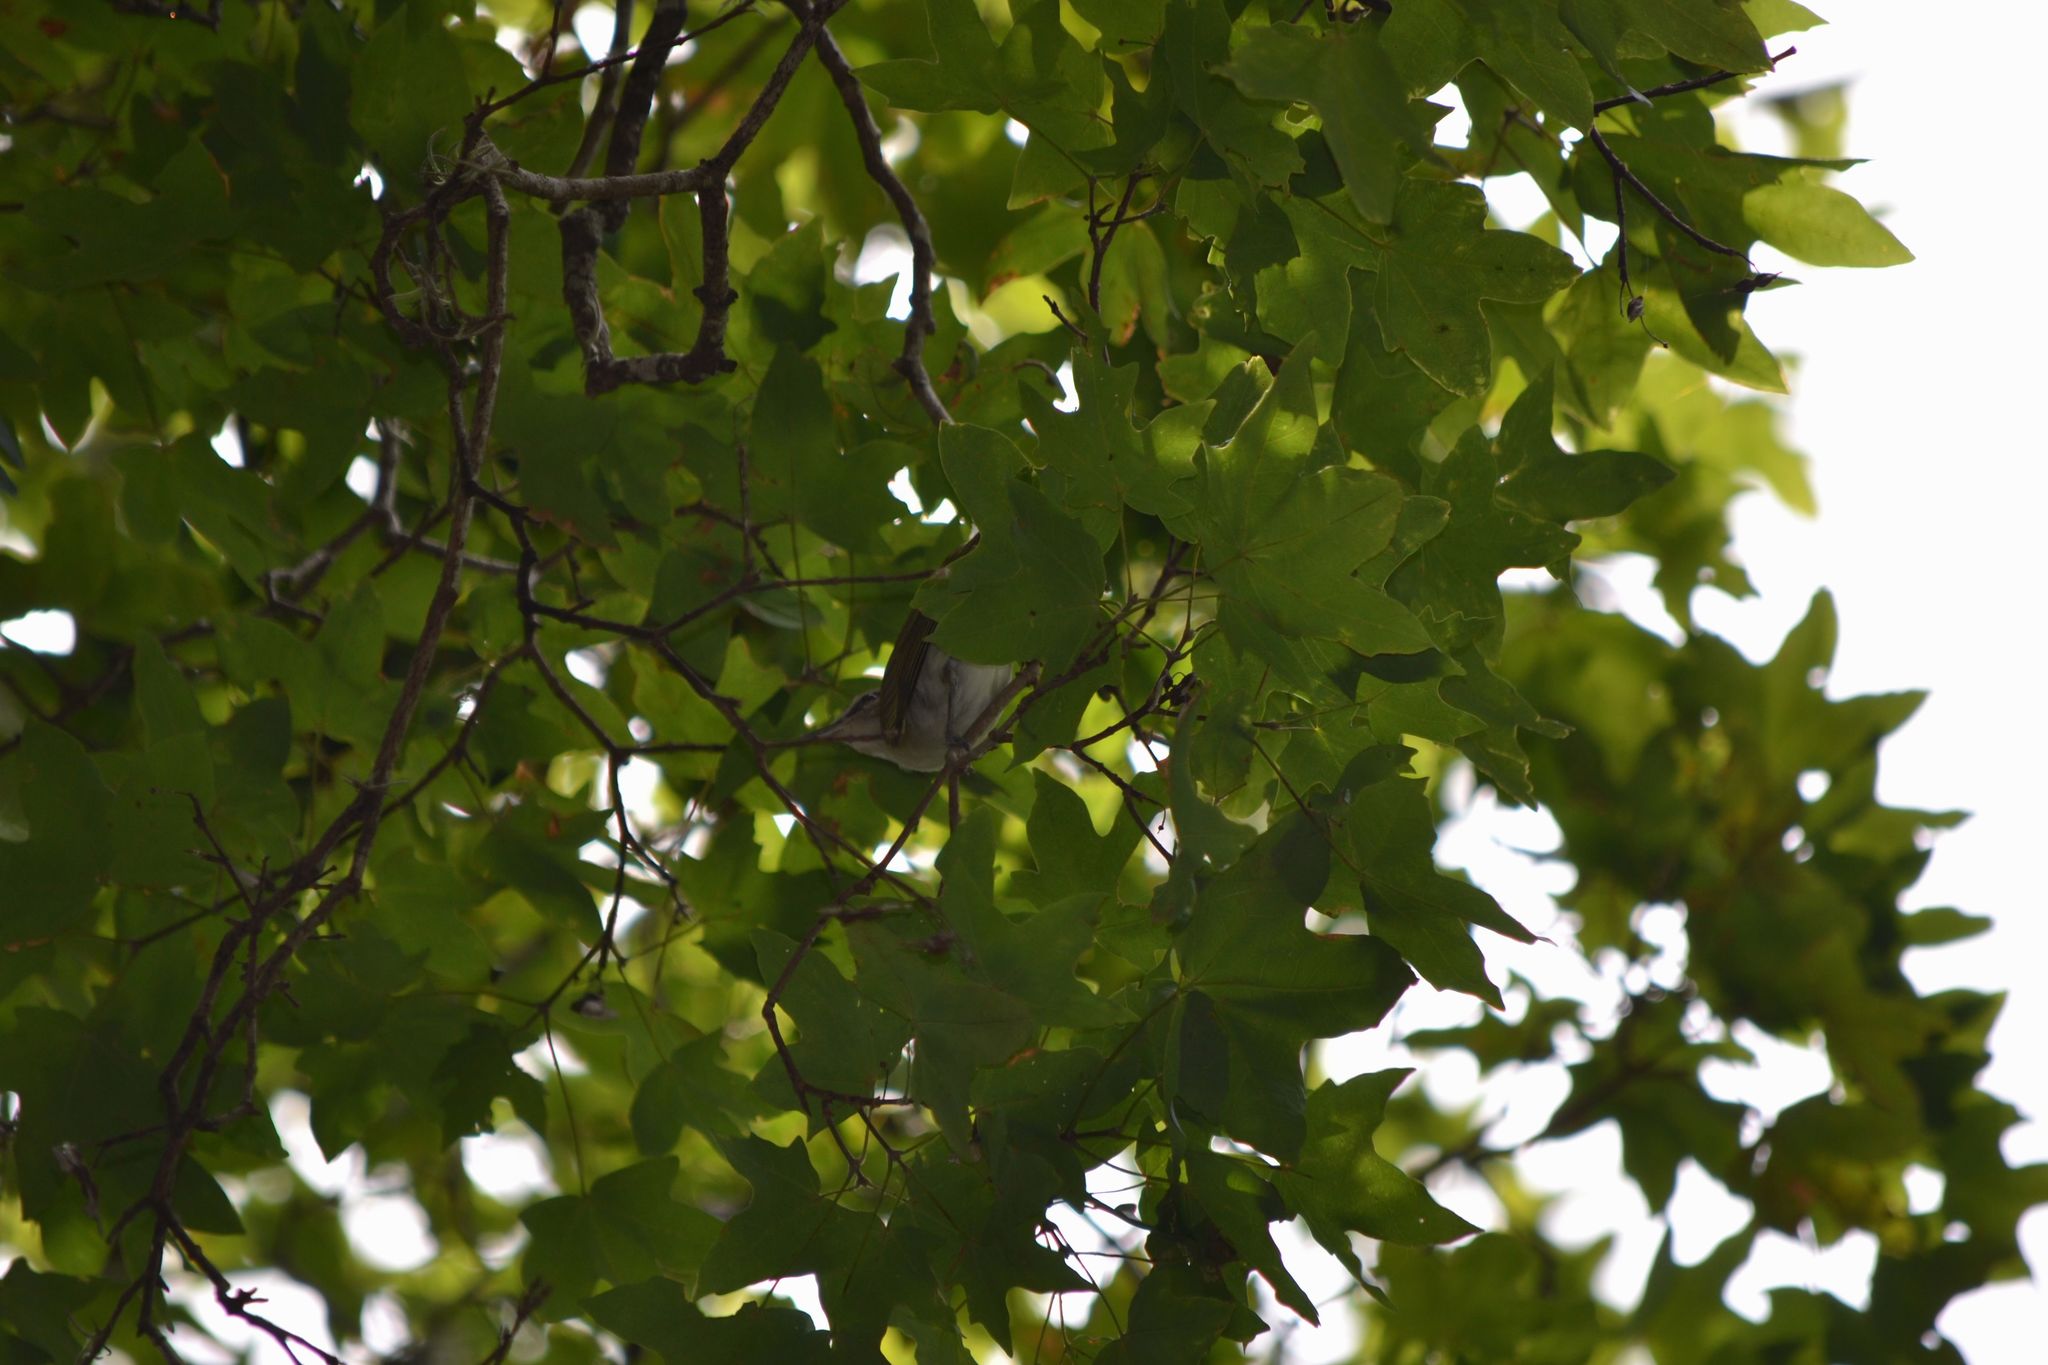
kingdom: Animalia
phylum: Chordata
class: Aves
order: Passeriformes
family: Vireonidae
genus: Vireo
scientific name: Vireo olivaceus
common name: Red-eyed vireo
